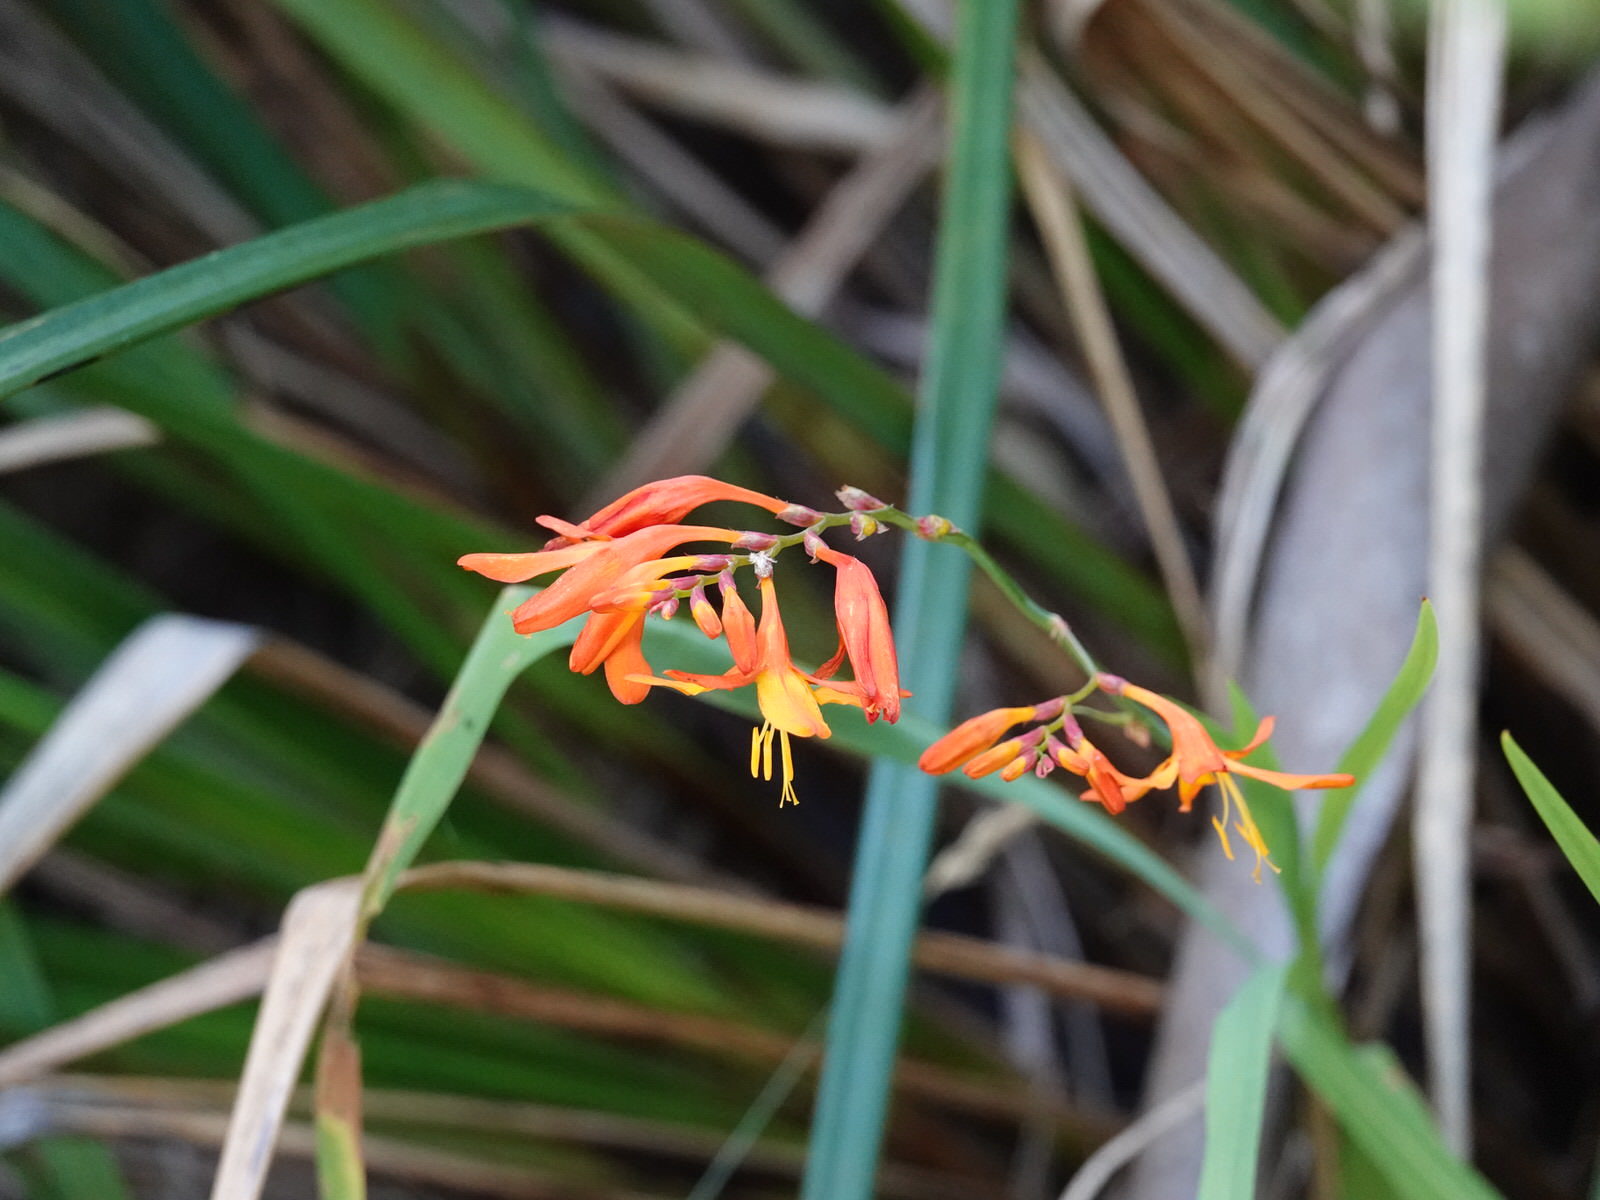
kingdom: Plantae
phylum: Tracheophyta
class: Liliopsida
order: Asparagales
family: Iridaceae
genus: Crocosmia
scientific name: Crocosmia crocosmiiflora
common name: Montbretia
